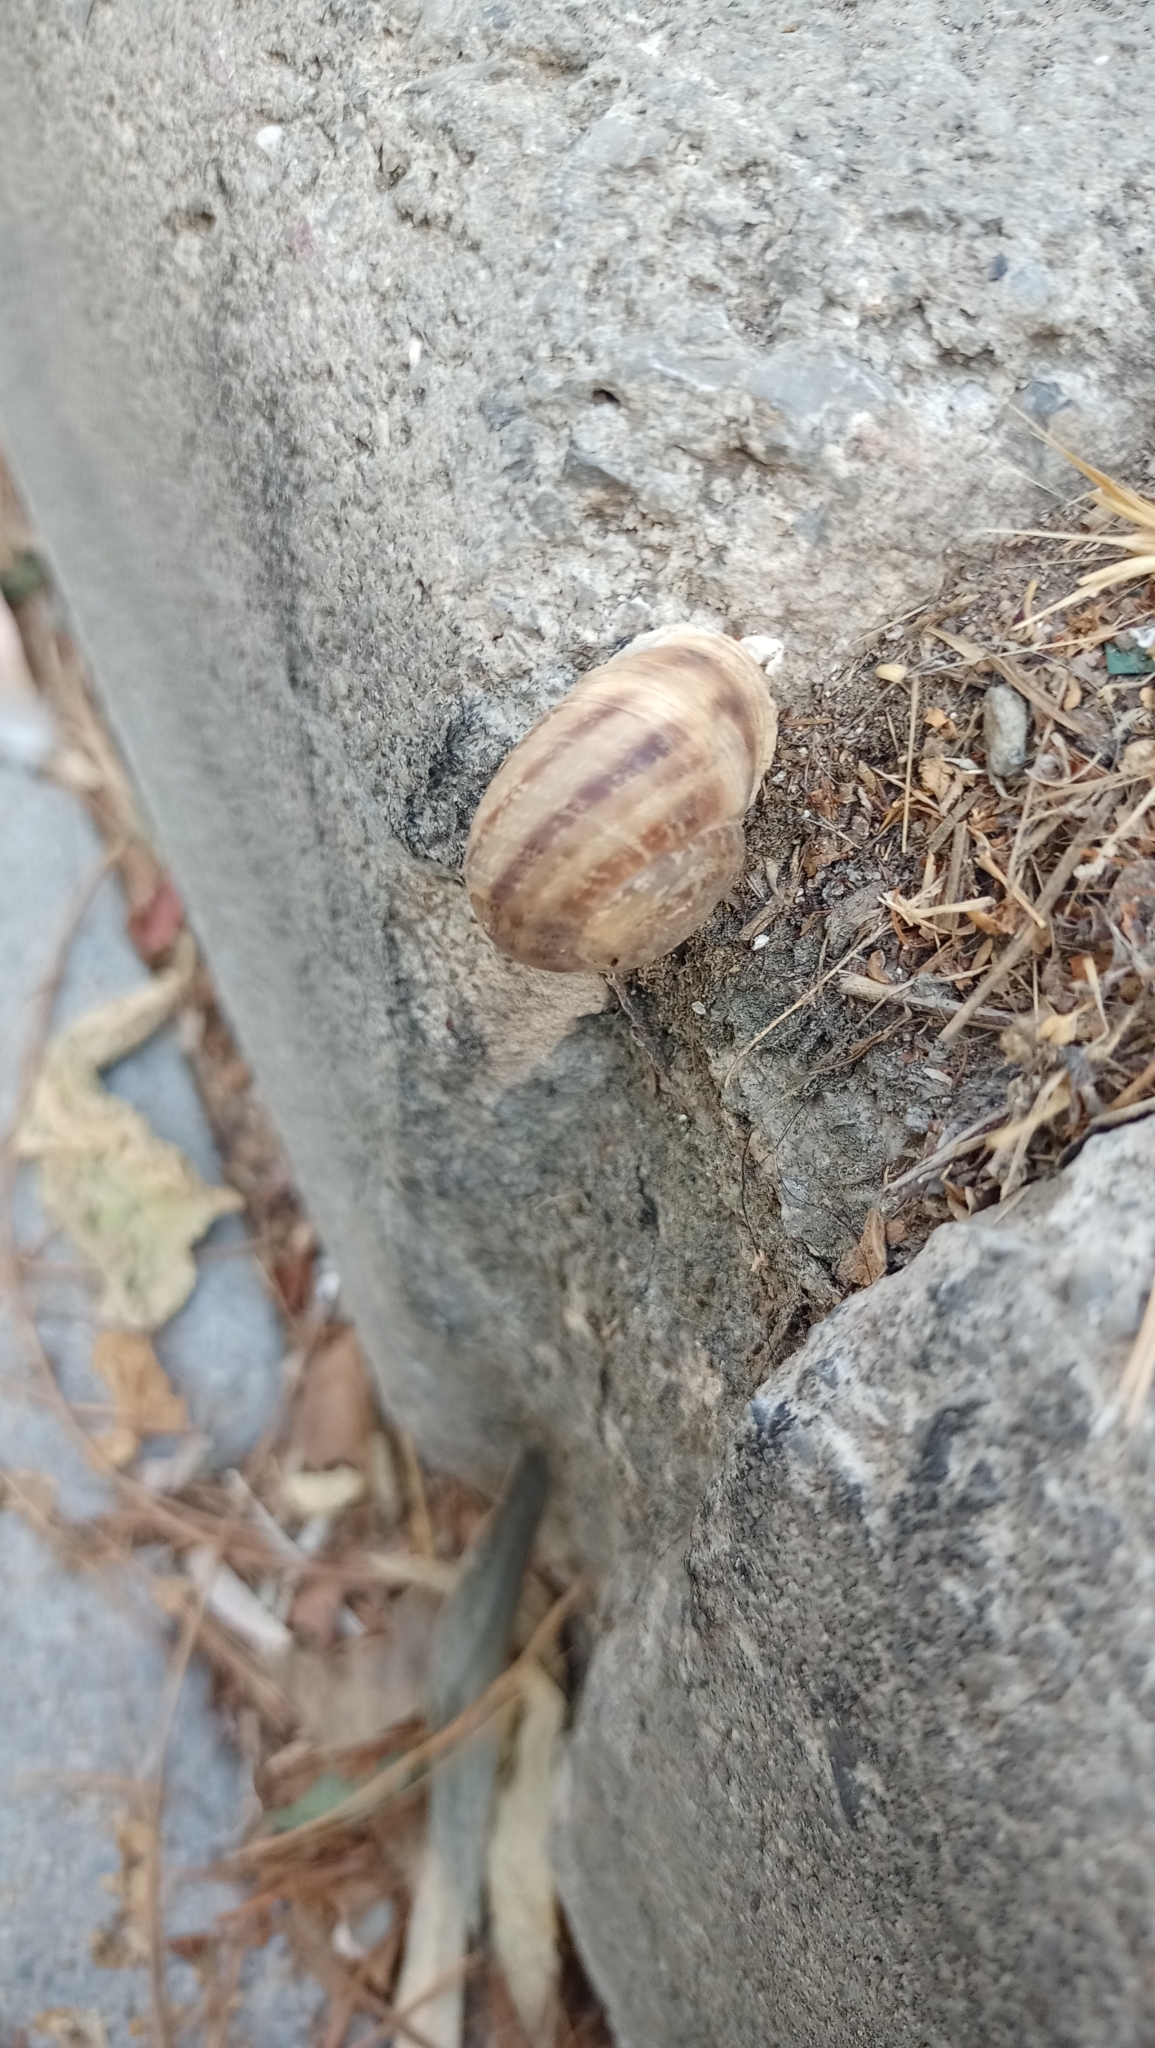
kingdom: Animalia
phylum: Mollusca
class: Gastropoda
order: Stylommatophora
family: Helicidae
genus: Eobania
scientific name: Eobania vermiculata
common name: Chocolateband snail
